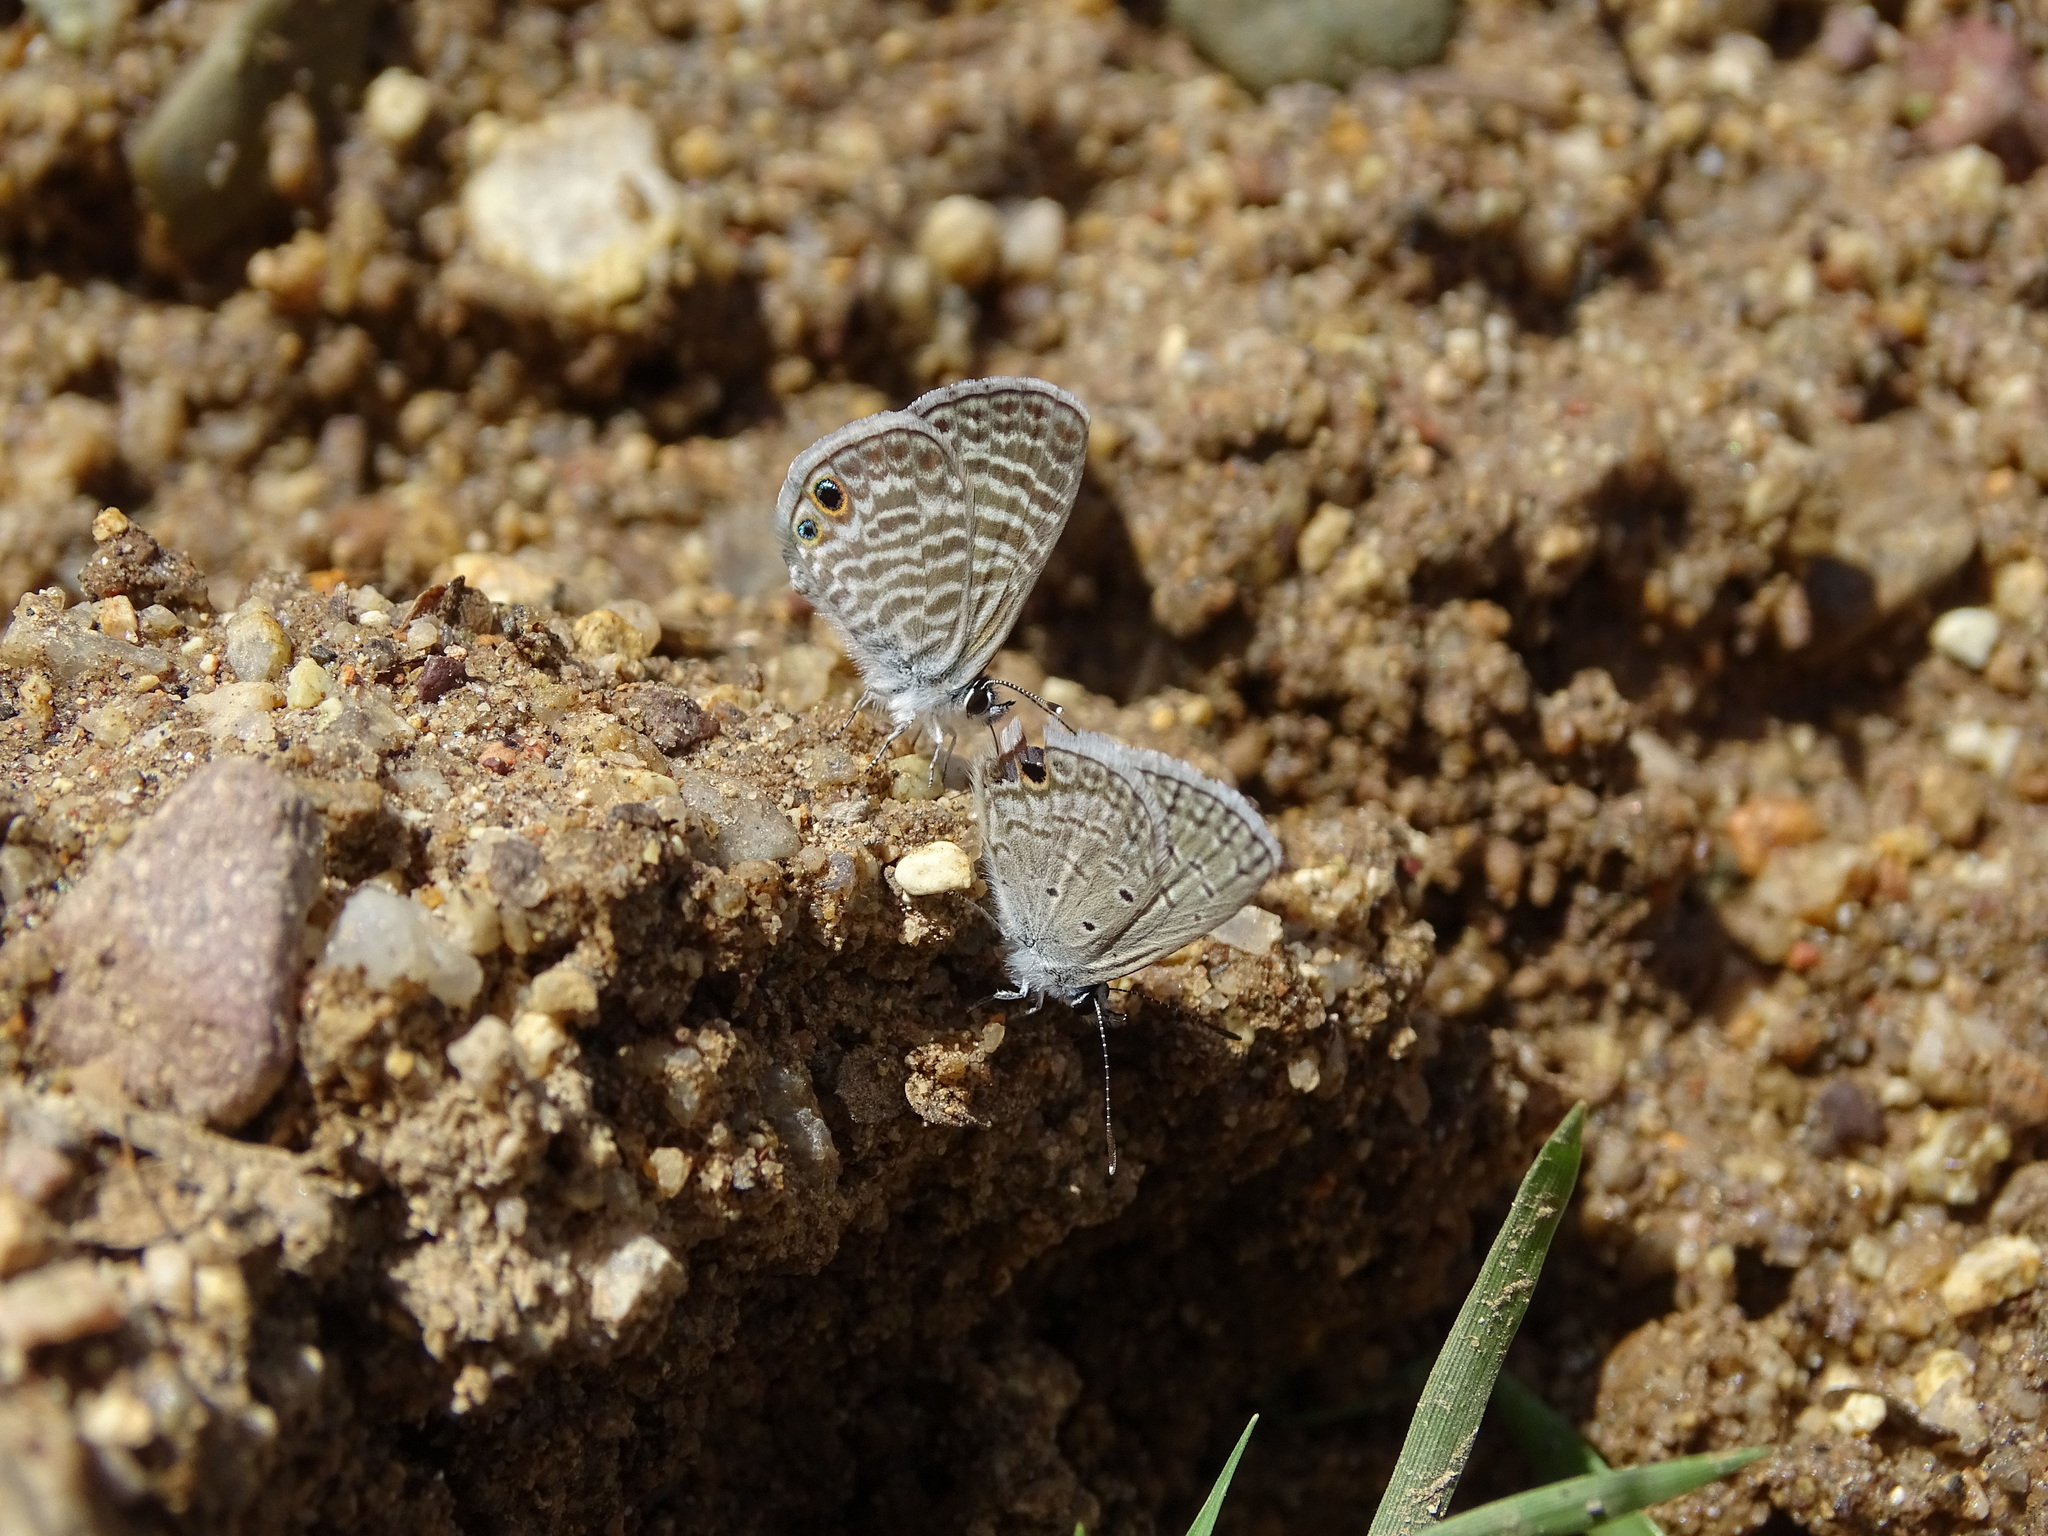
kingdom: Animalia
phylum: Arthropoda
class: Insecta
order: Lepidoptera
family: Lycaenidae
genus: Hemiargus
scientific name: Hemiargus ceraunus
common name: Ceraunus blue
